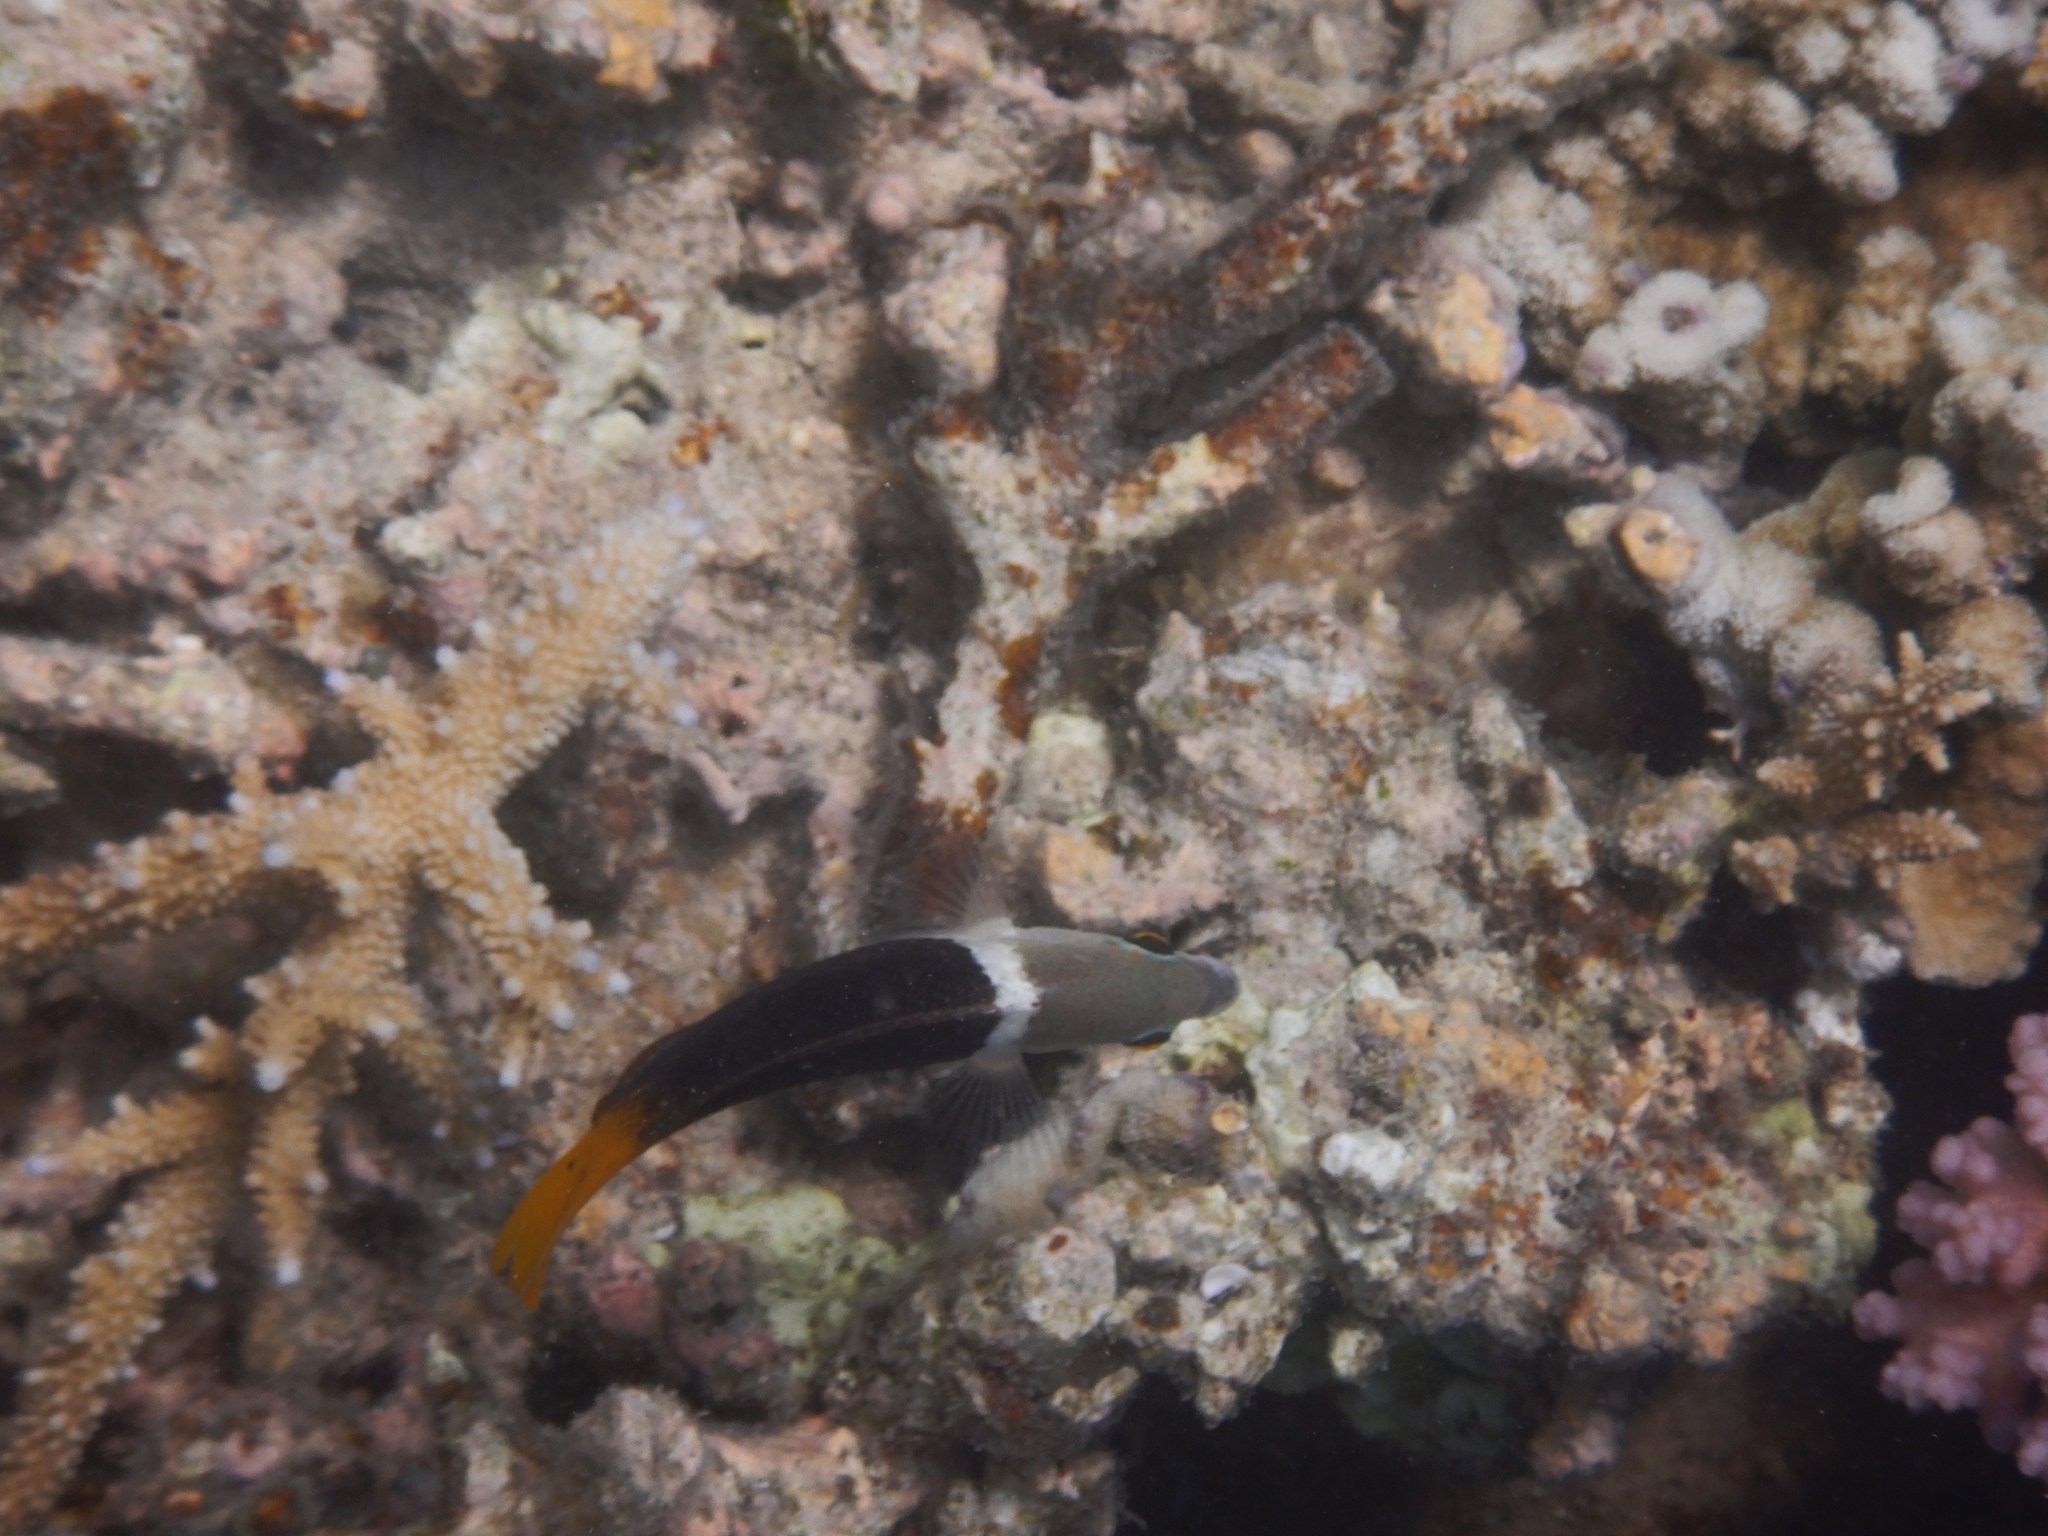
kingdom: Animalia
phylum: Chordata
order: Perciformes
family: Labridae
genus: Hemigymnus
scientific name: Hemigymnus melapterus
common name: Blackeye thicklip
